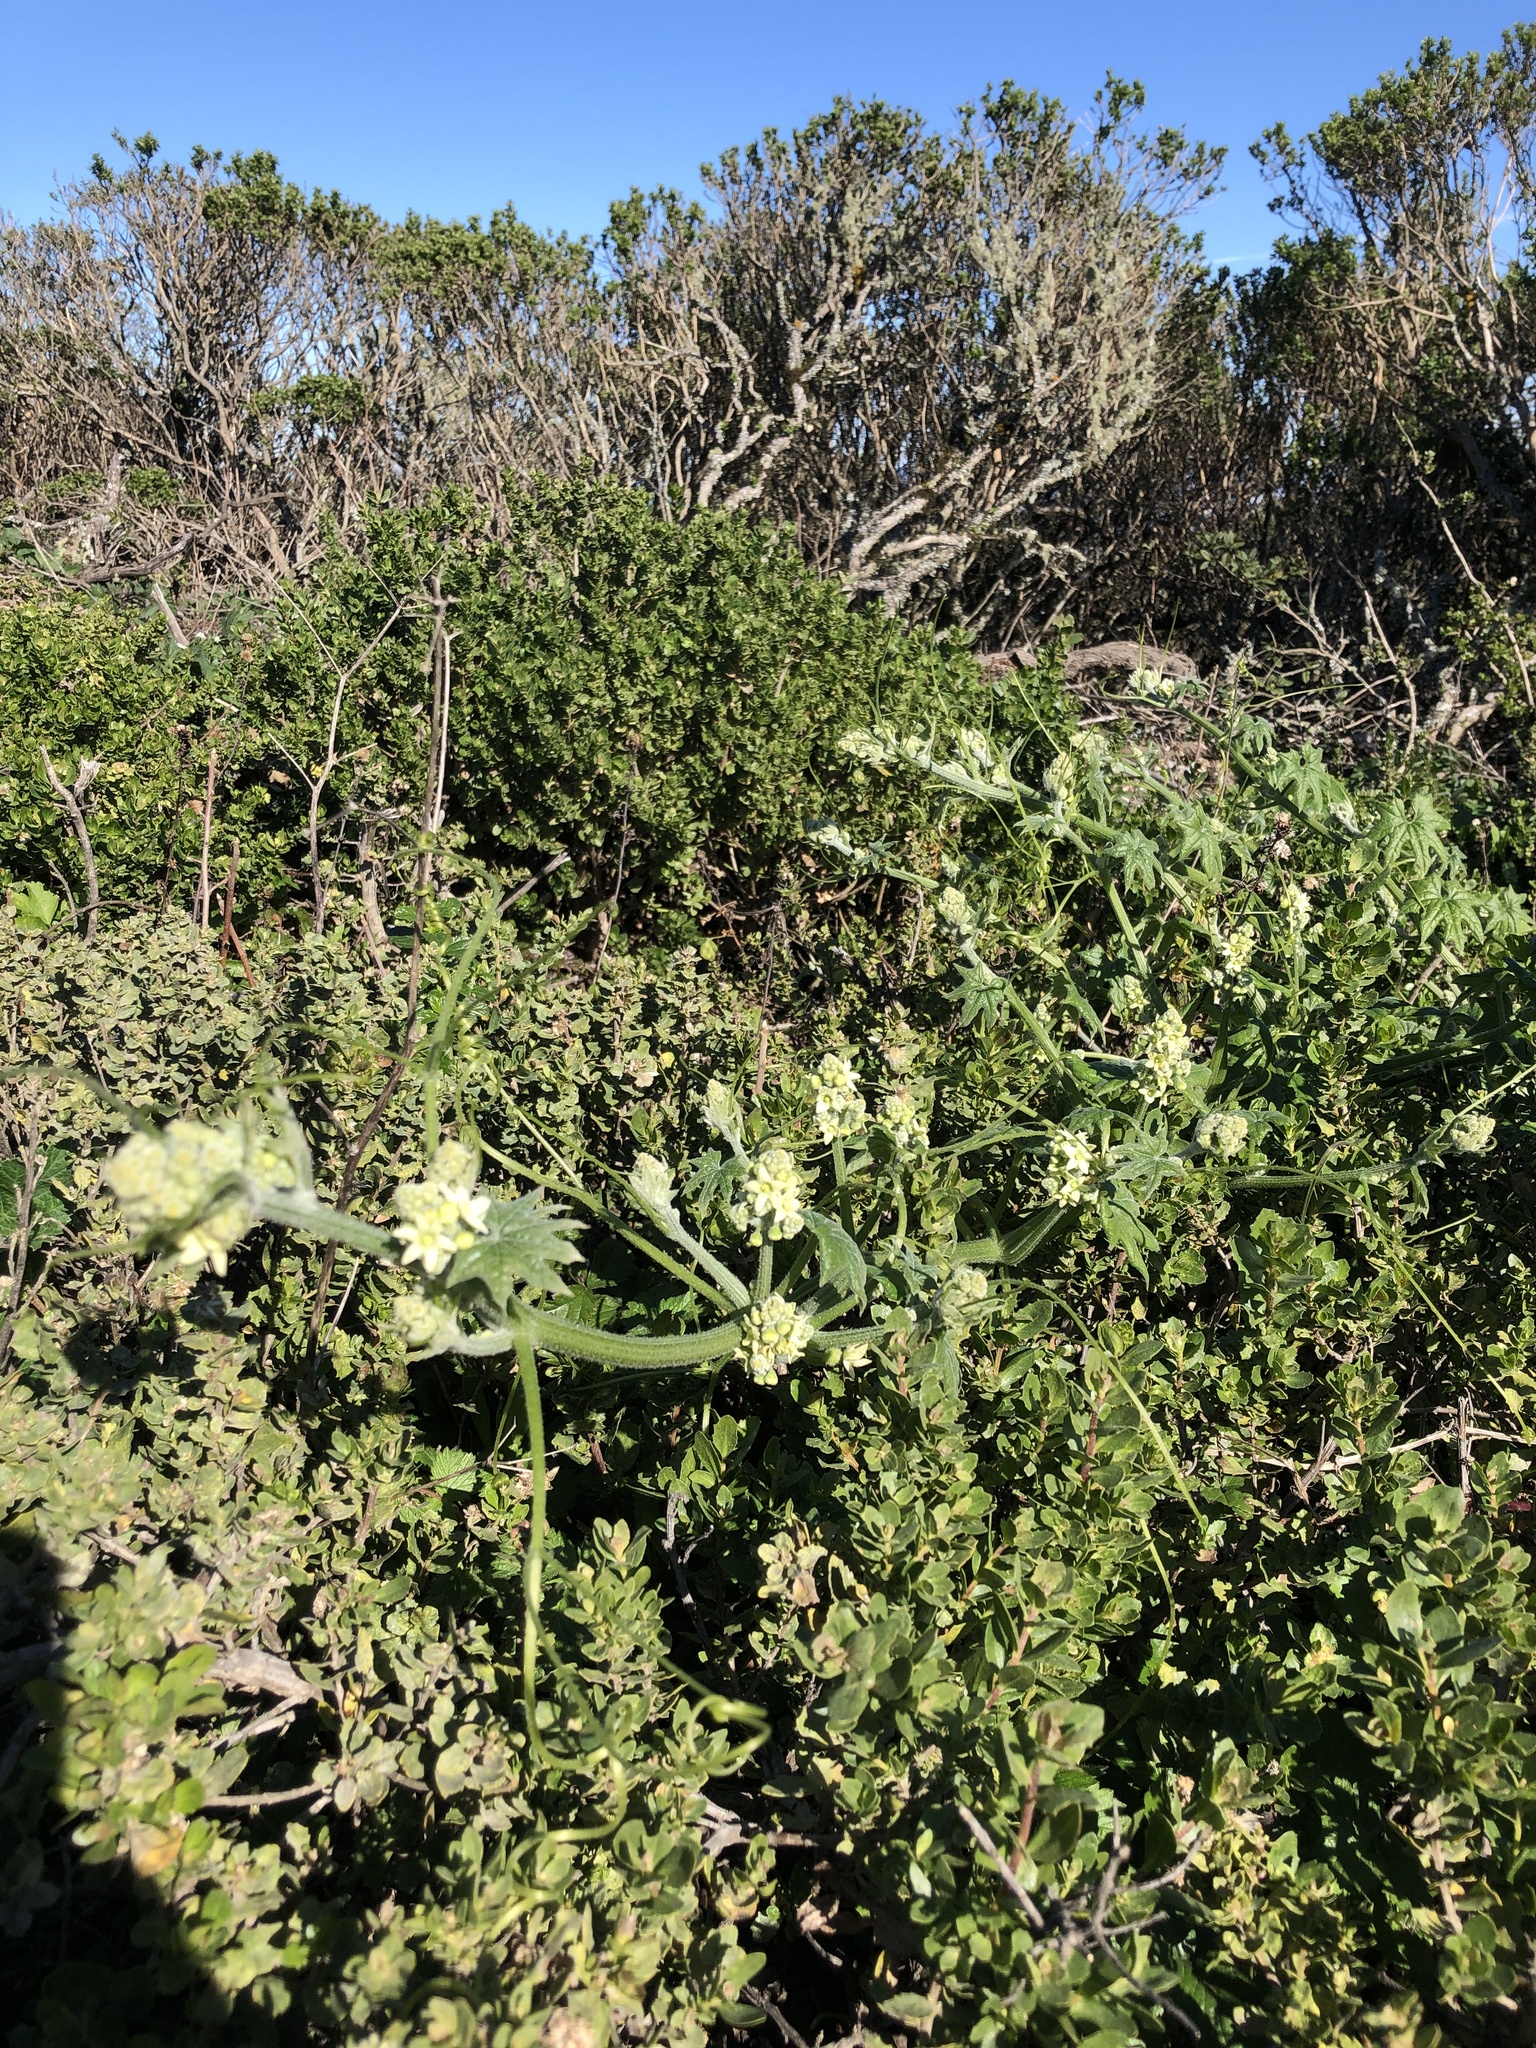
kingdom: Plantae
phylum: Tracheophyta
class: Magnoliopsida
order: Cucurbitales
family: Cucurbitaceae
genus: Marah
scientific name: Marah fabacea
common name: California manroot
